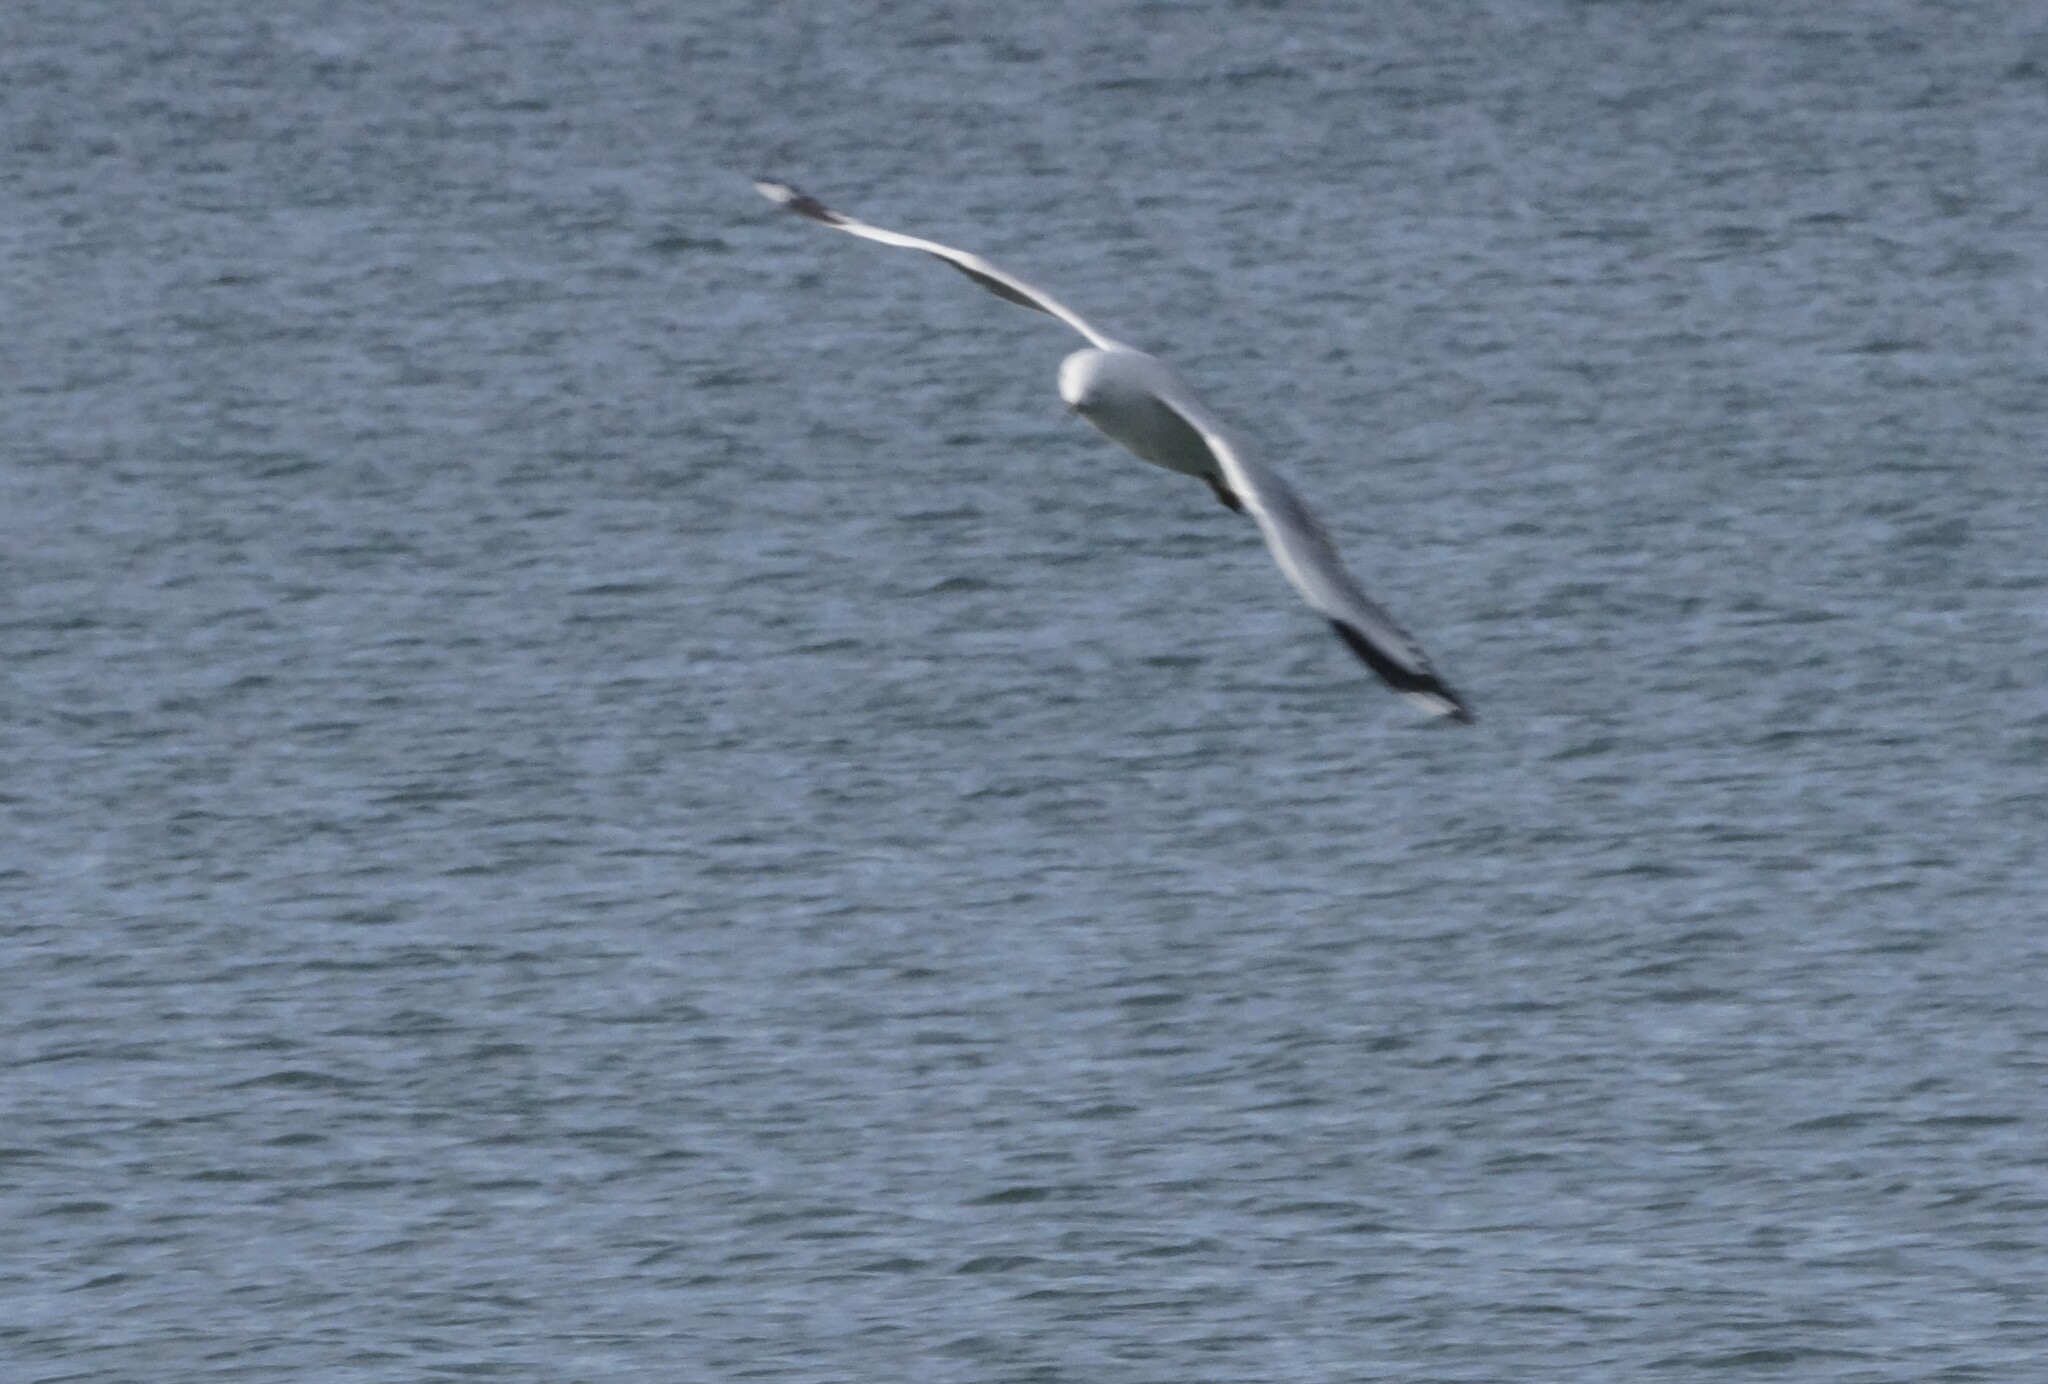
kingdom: Animalia
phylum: Chordata
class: Aves
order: Charadriiformes
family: Laridae
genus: Chroicocephalus
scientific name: Chroicocephalus novaehollandiae
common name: Silver gull
